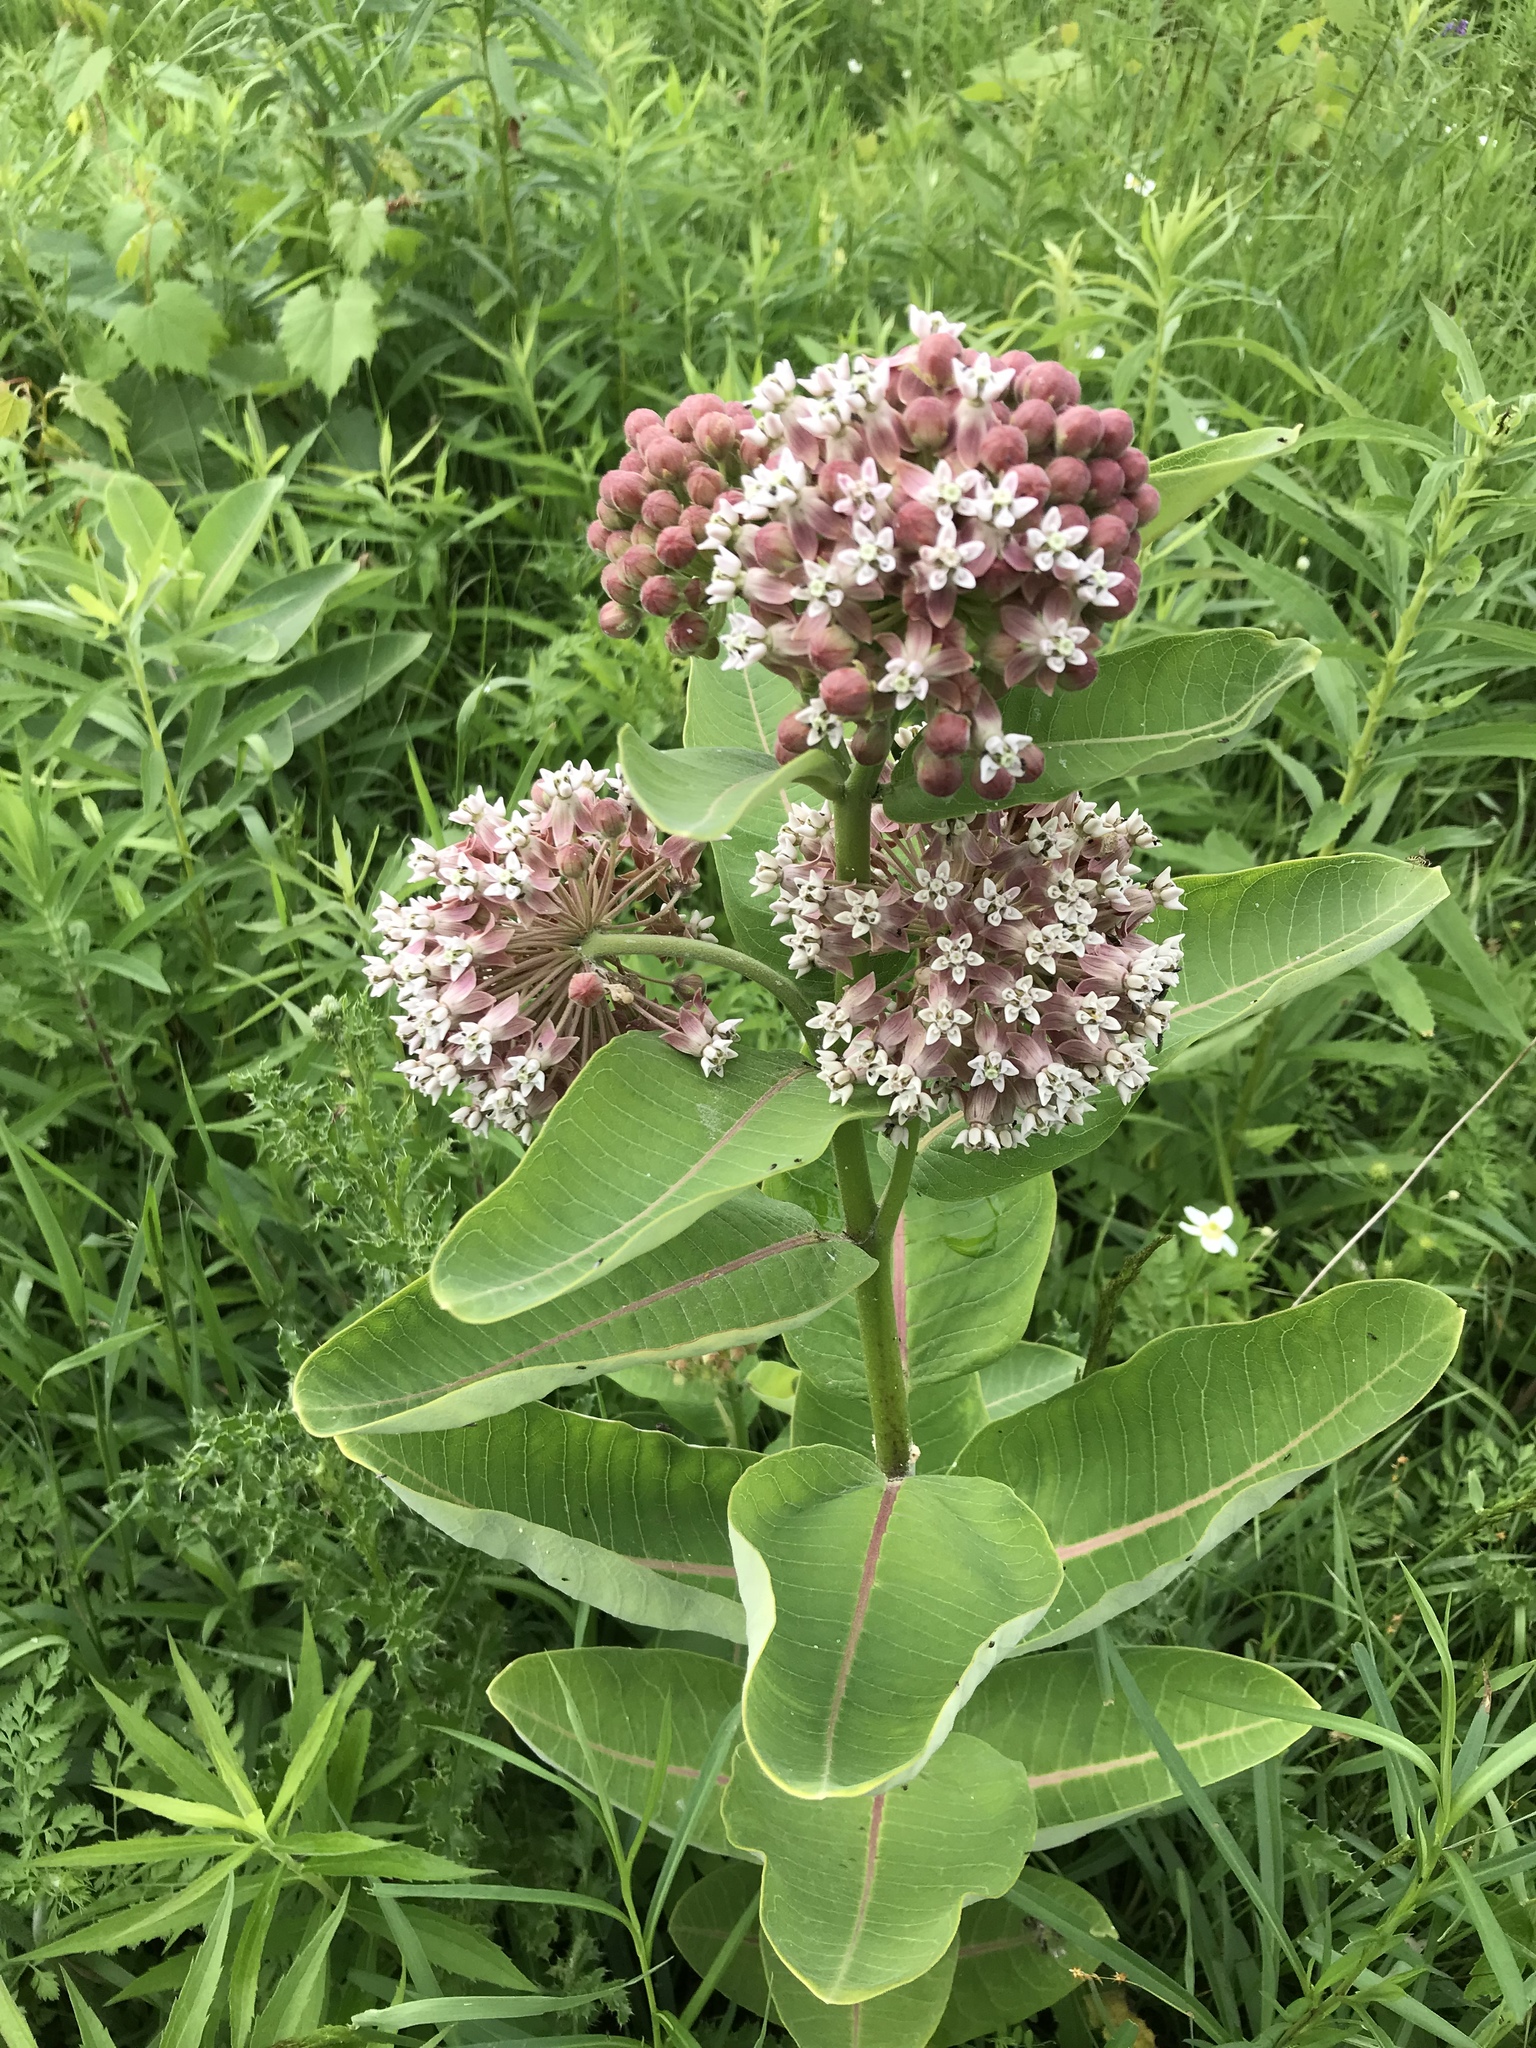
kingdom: Plantae
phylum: Tracheophyta
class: Magnoliopsida
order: Gentianales
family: Apocynaceae
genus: Asclepias
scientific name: Asclepias syriaca
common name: Common milkweed
